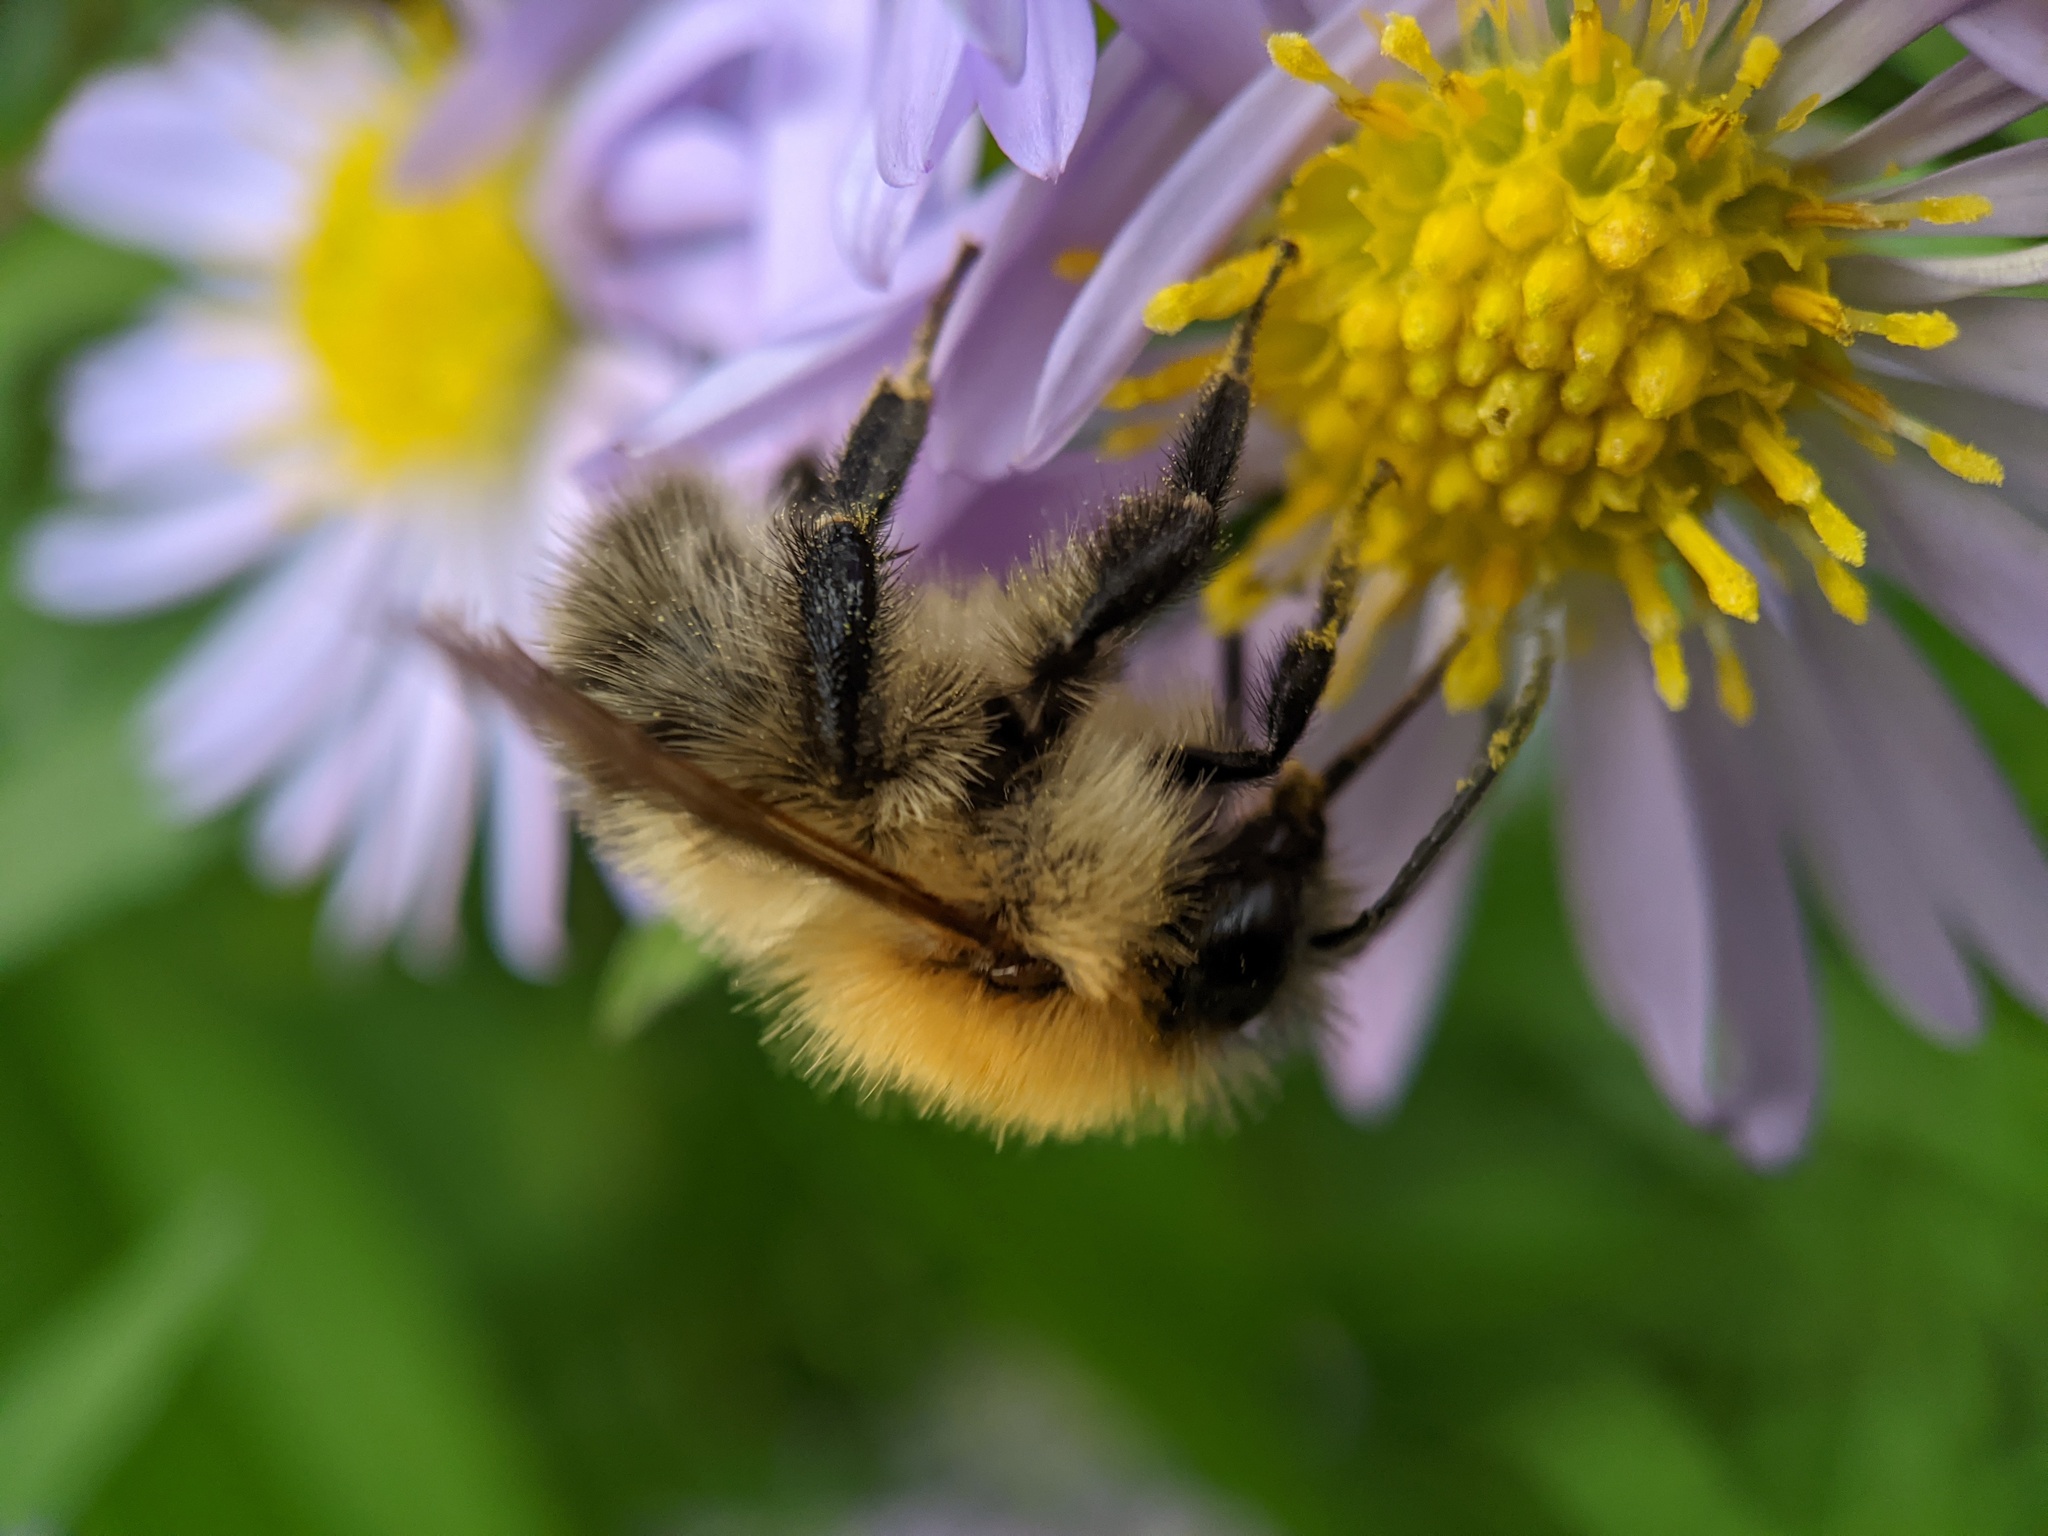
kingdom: Animalia
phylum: Arthropoda
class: Insecta
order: Hymenoptera
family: Apidae
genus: Bombus
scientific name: Bombus pascuorum
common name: Common carder bee
